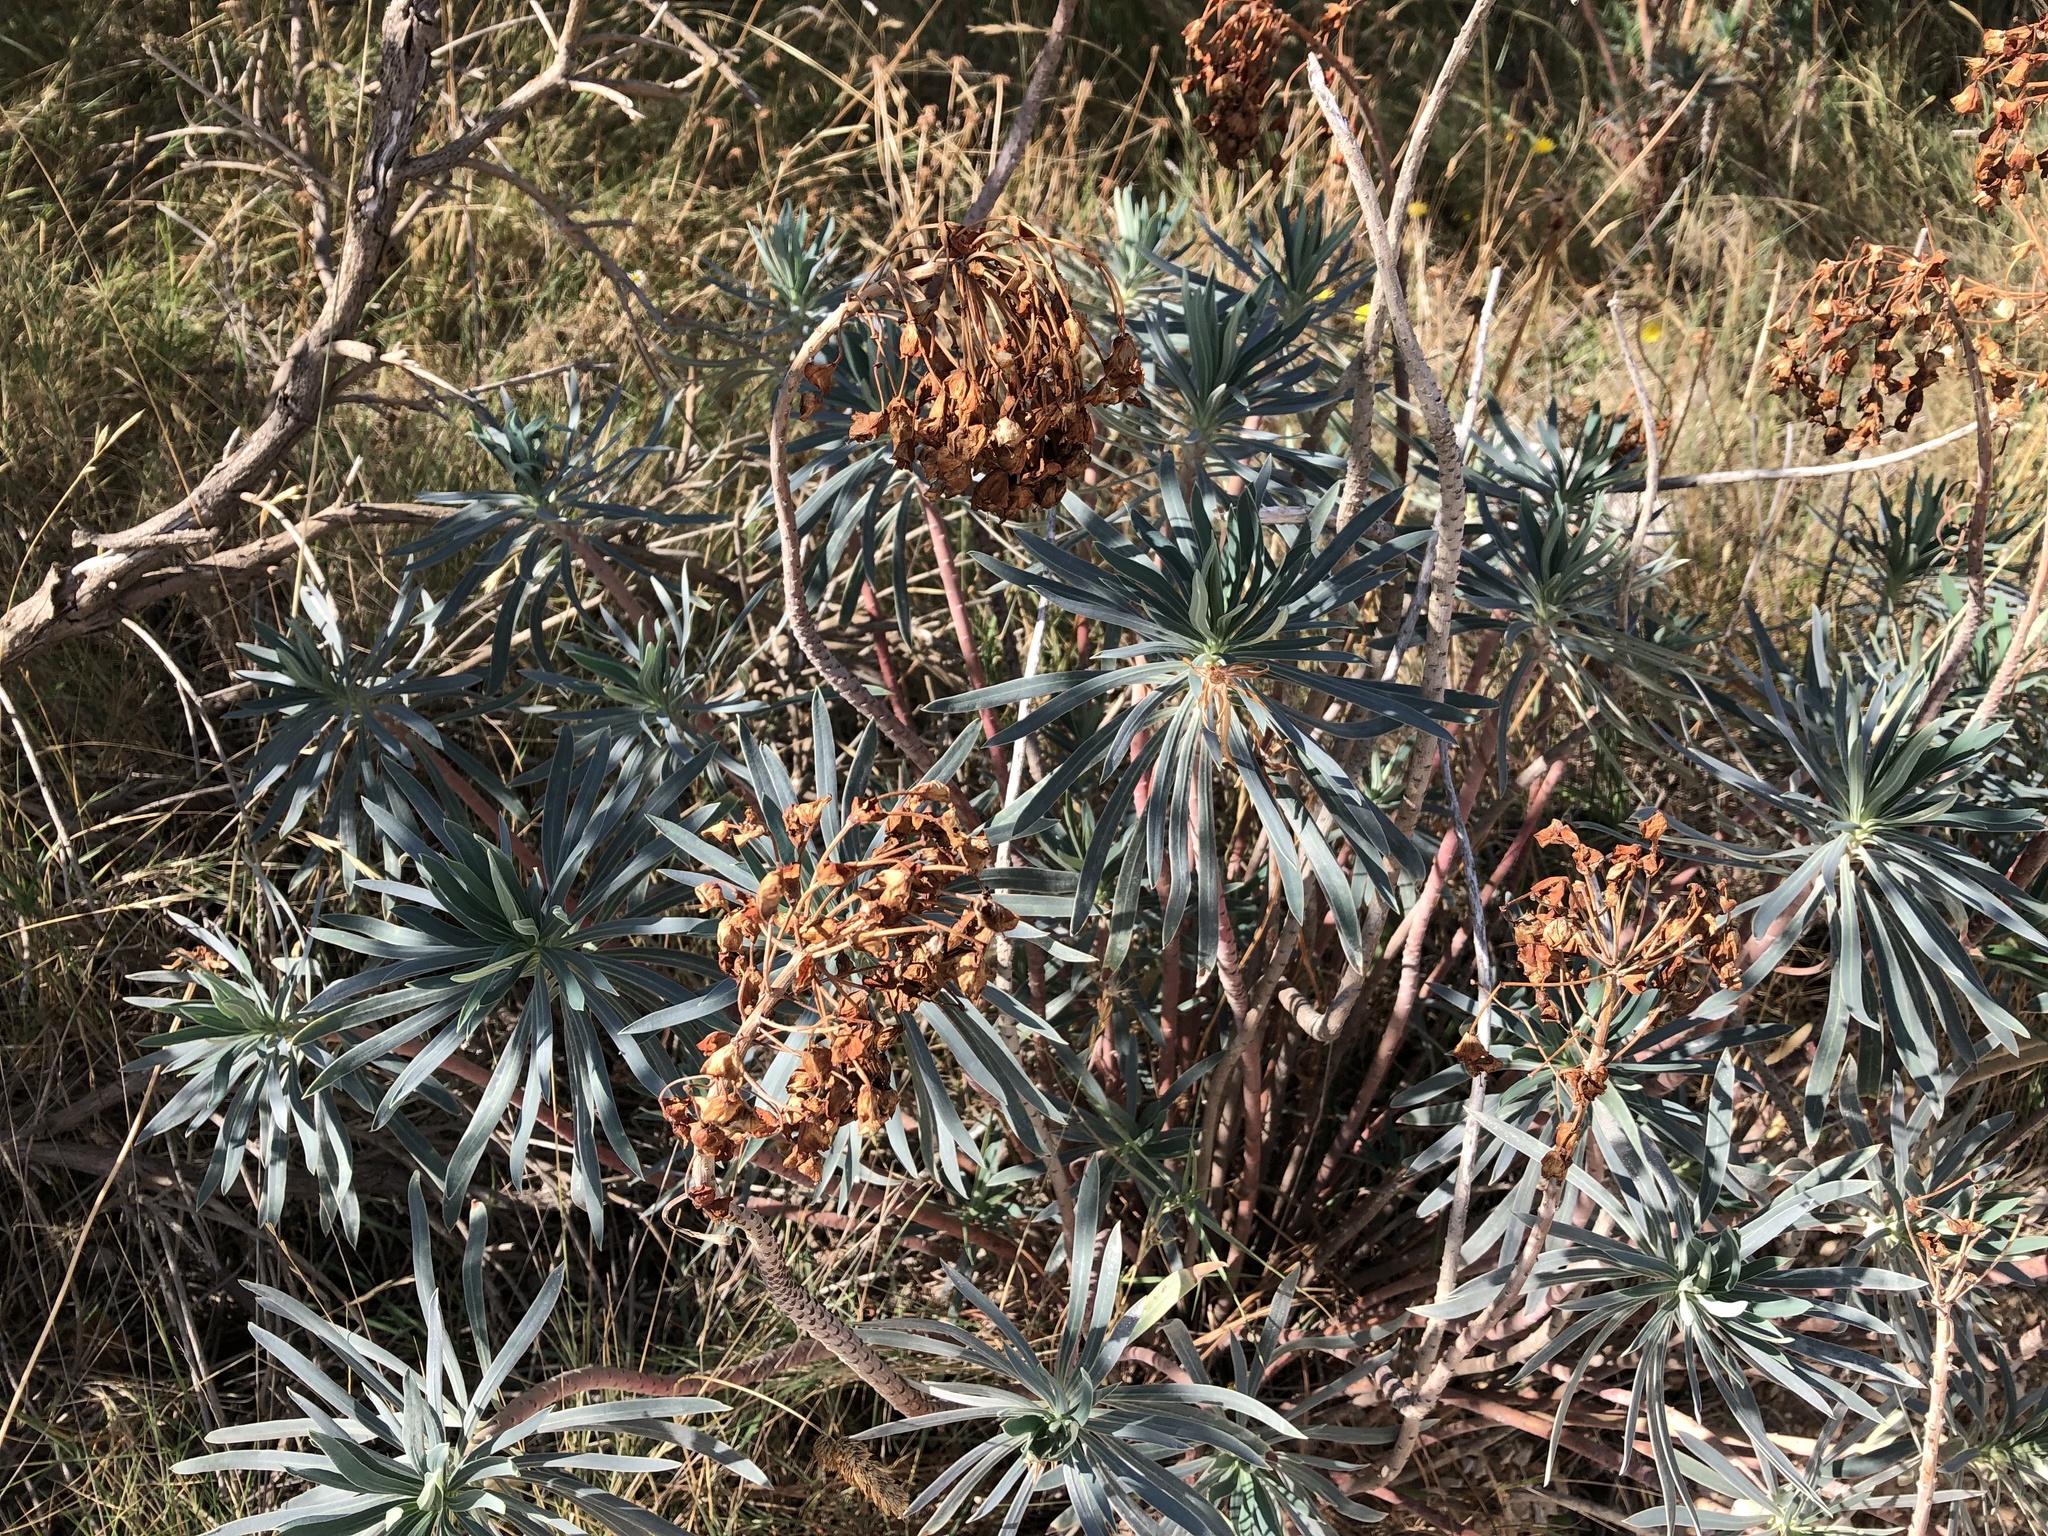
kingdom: Plantae
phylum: Tracheophyta
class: Magnoliopsida
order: Malpighiales
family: Euphorbiaceae
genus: Euphorbia
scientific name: Euphorbia characias
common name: Mediterranean spurge
